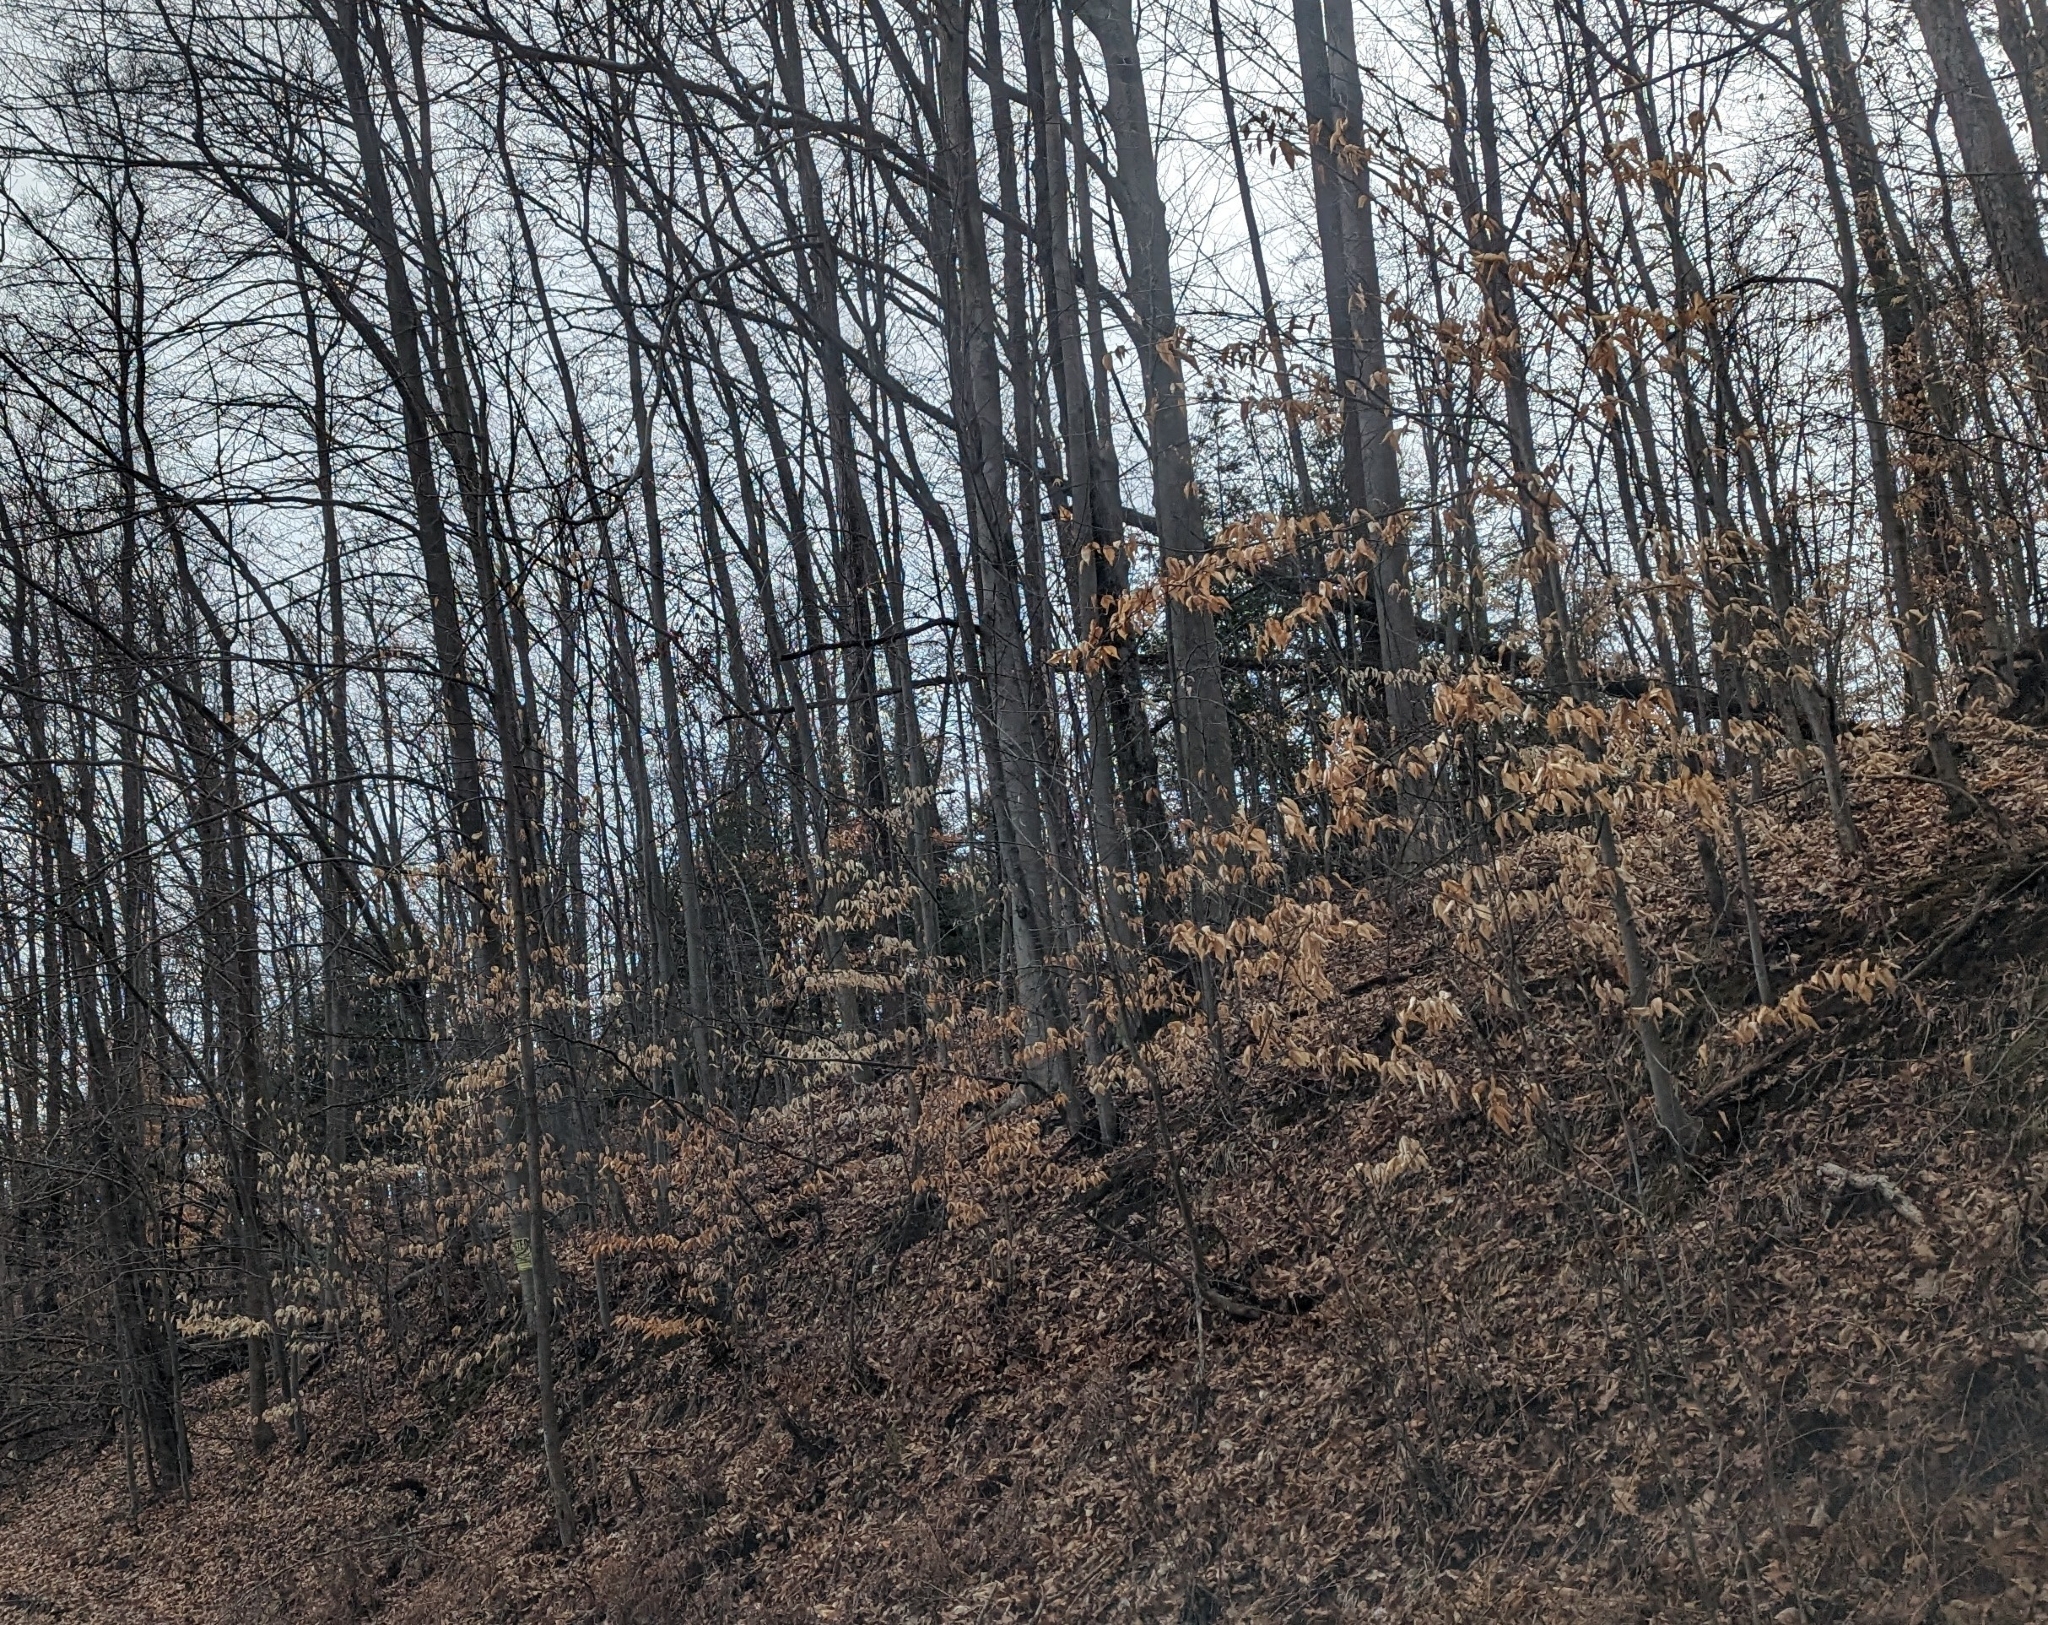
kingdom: Plantae
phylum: Tracheophyta
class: Magnoliopsida
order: Fagales
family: Fagaceae
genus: Fagus
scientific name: Fagus grandifolia
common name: American beech
